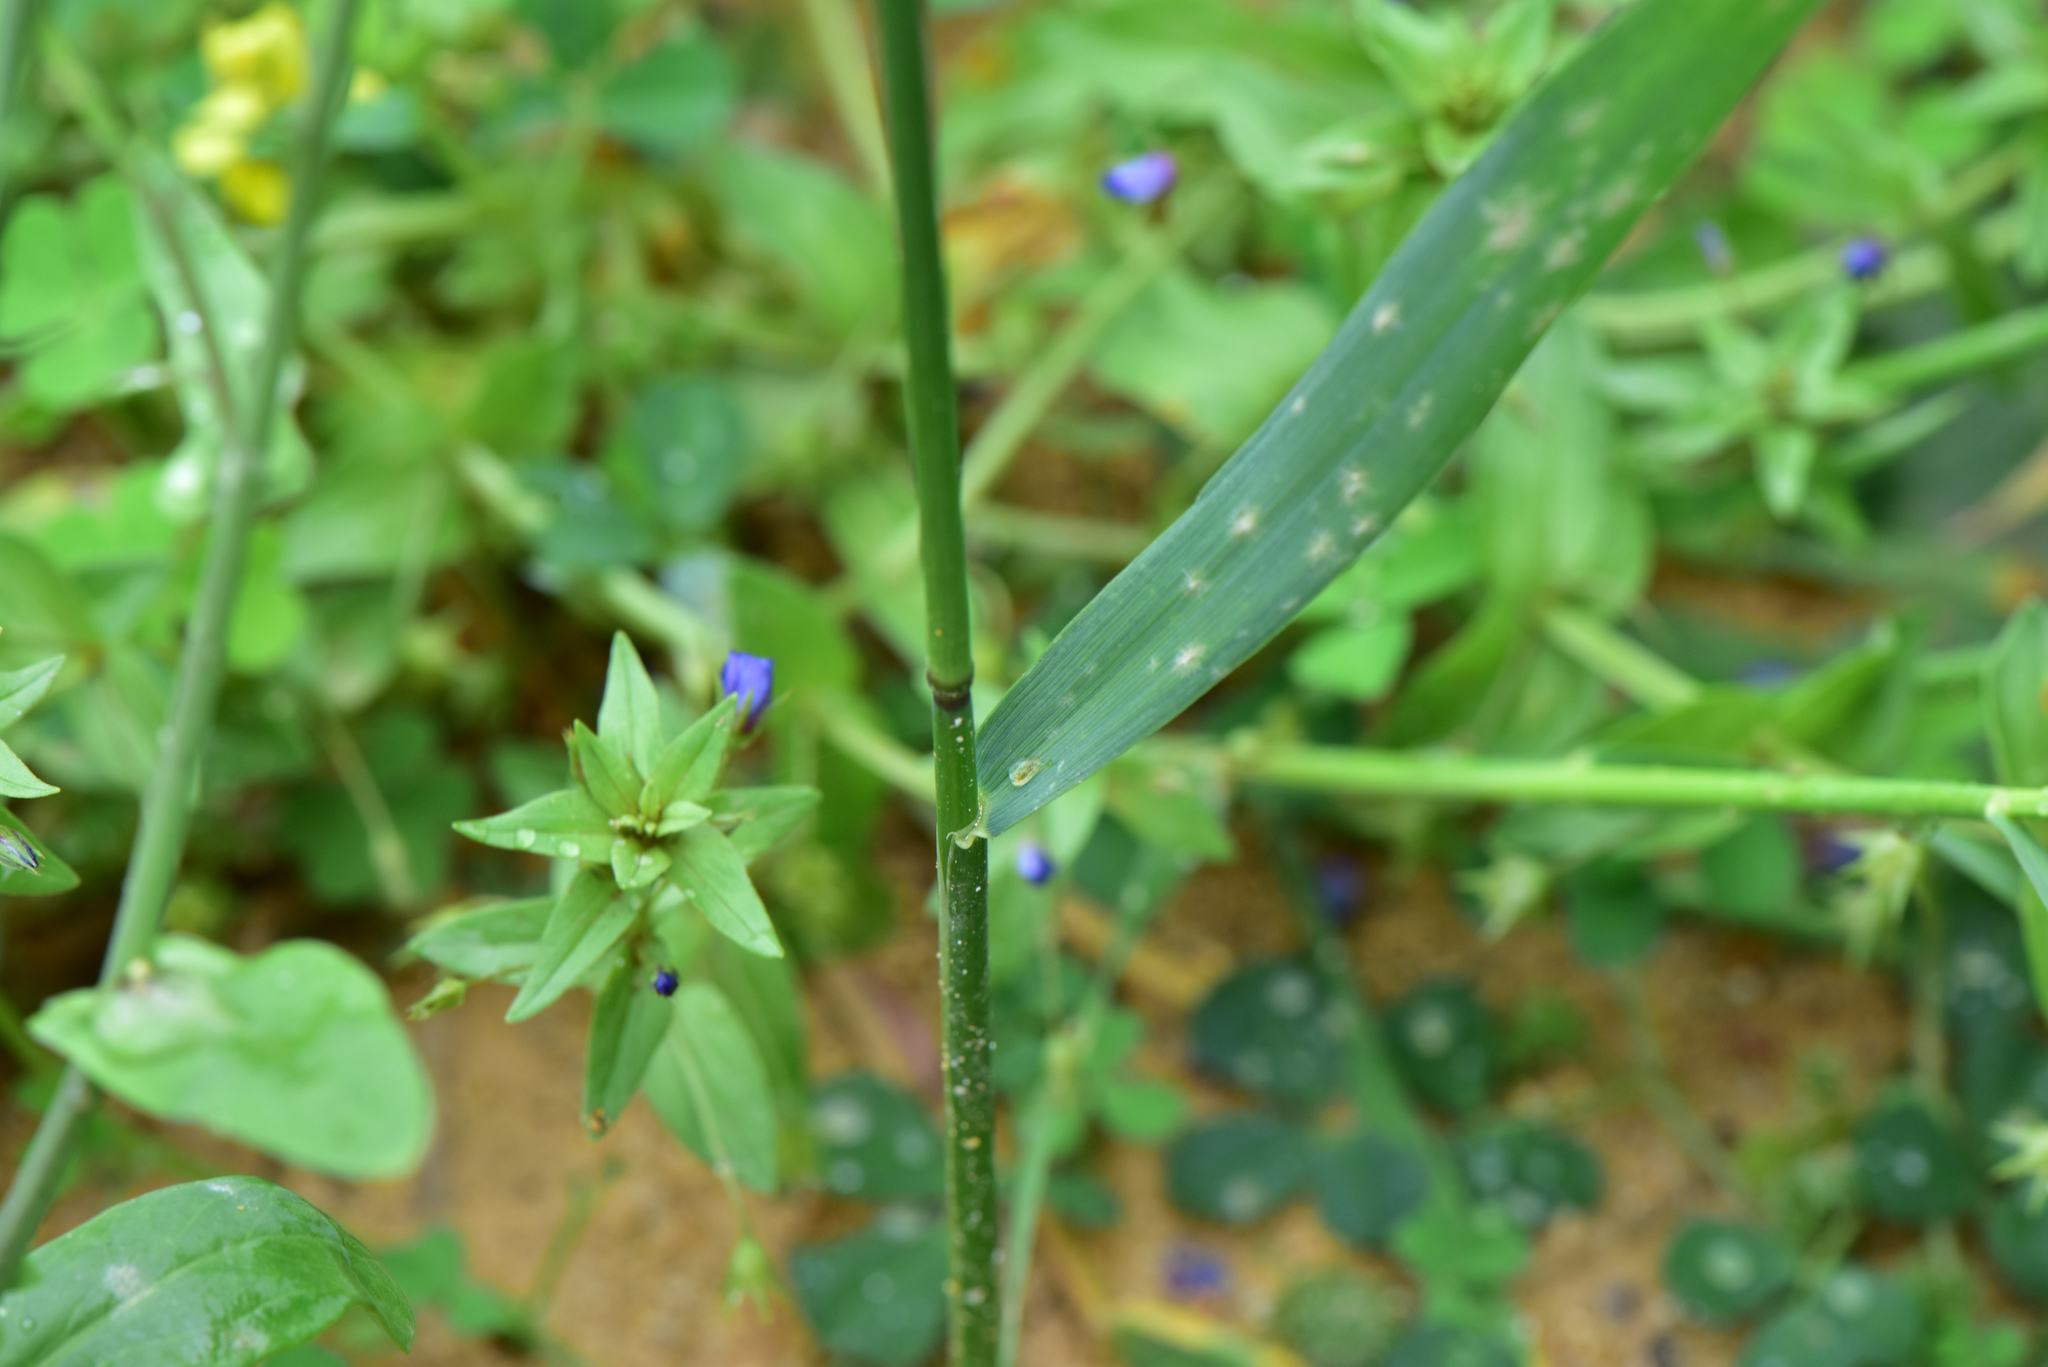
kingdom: Plantae
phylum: Tracheophyta
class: Liliopsida
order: Poales
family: Poaceae
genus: Elymus
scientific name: Elymus tsukushiensis
